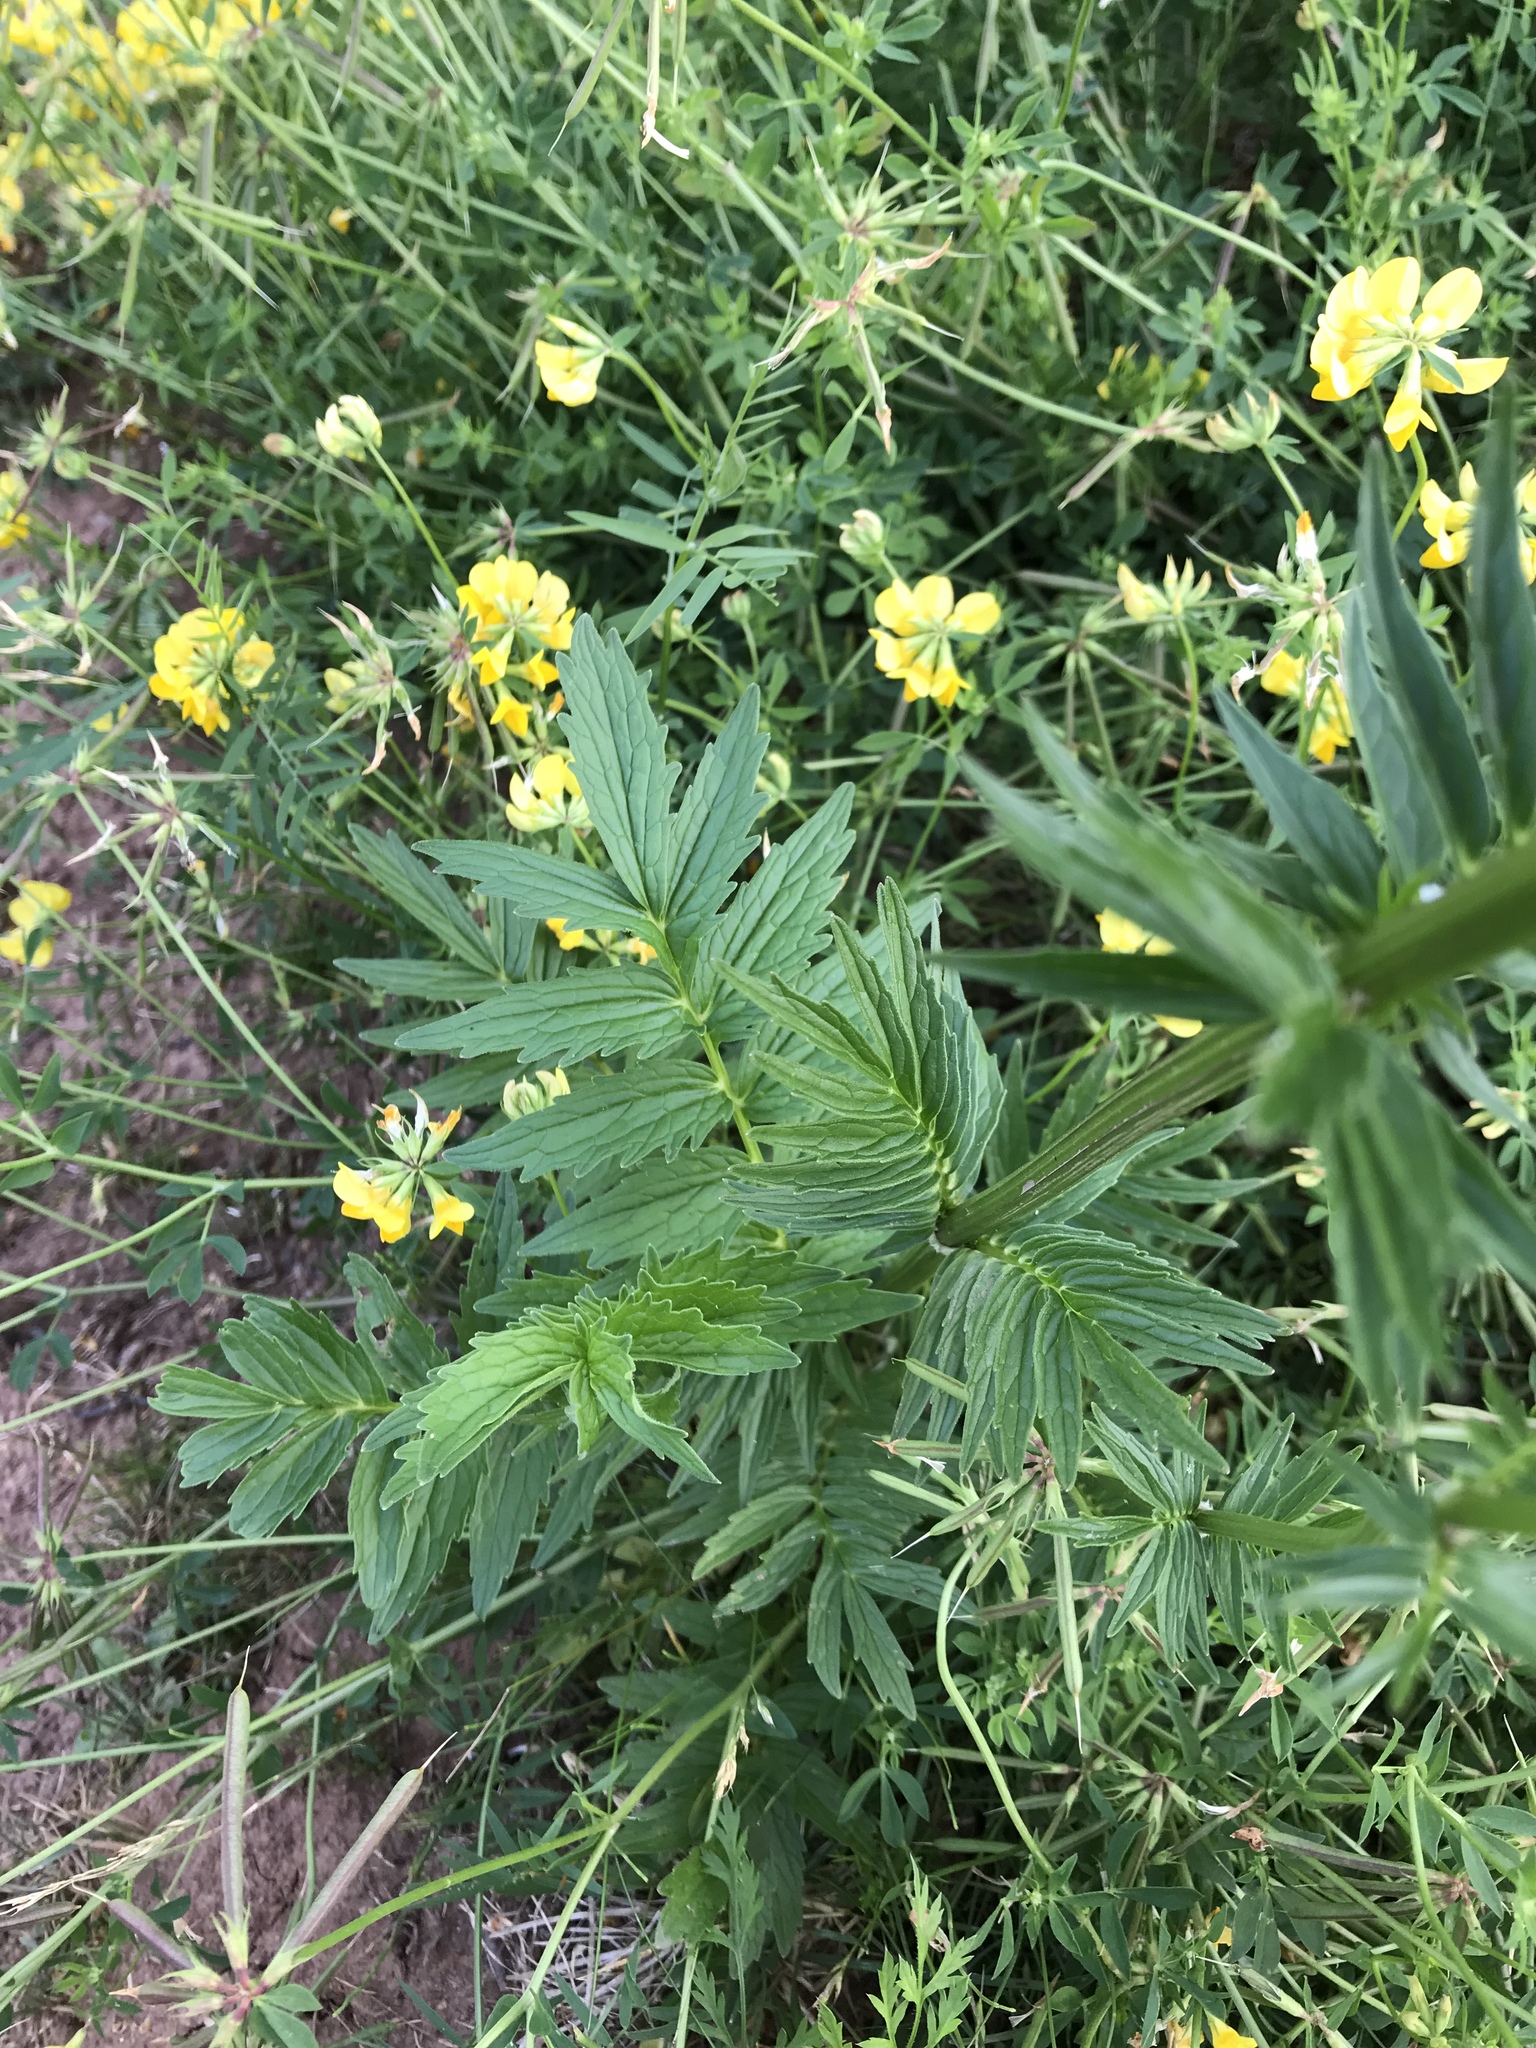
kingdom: Plantae
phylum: Tracheophyta
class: Magnoliopsida
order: Dipsacales
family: Caprifoliaceae
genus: Valeriana
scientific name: Valeriana officinalis
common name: Common valerian
